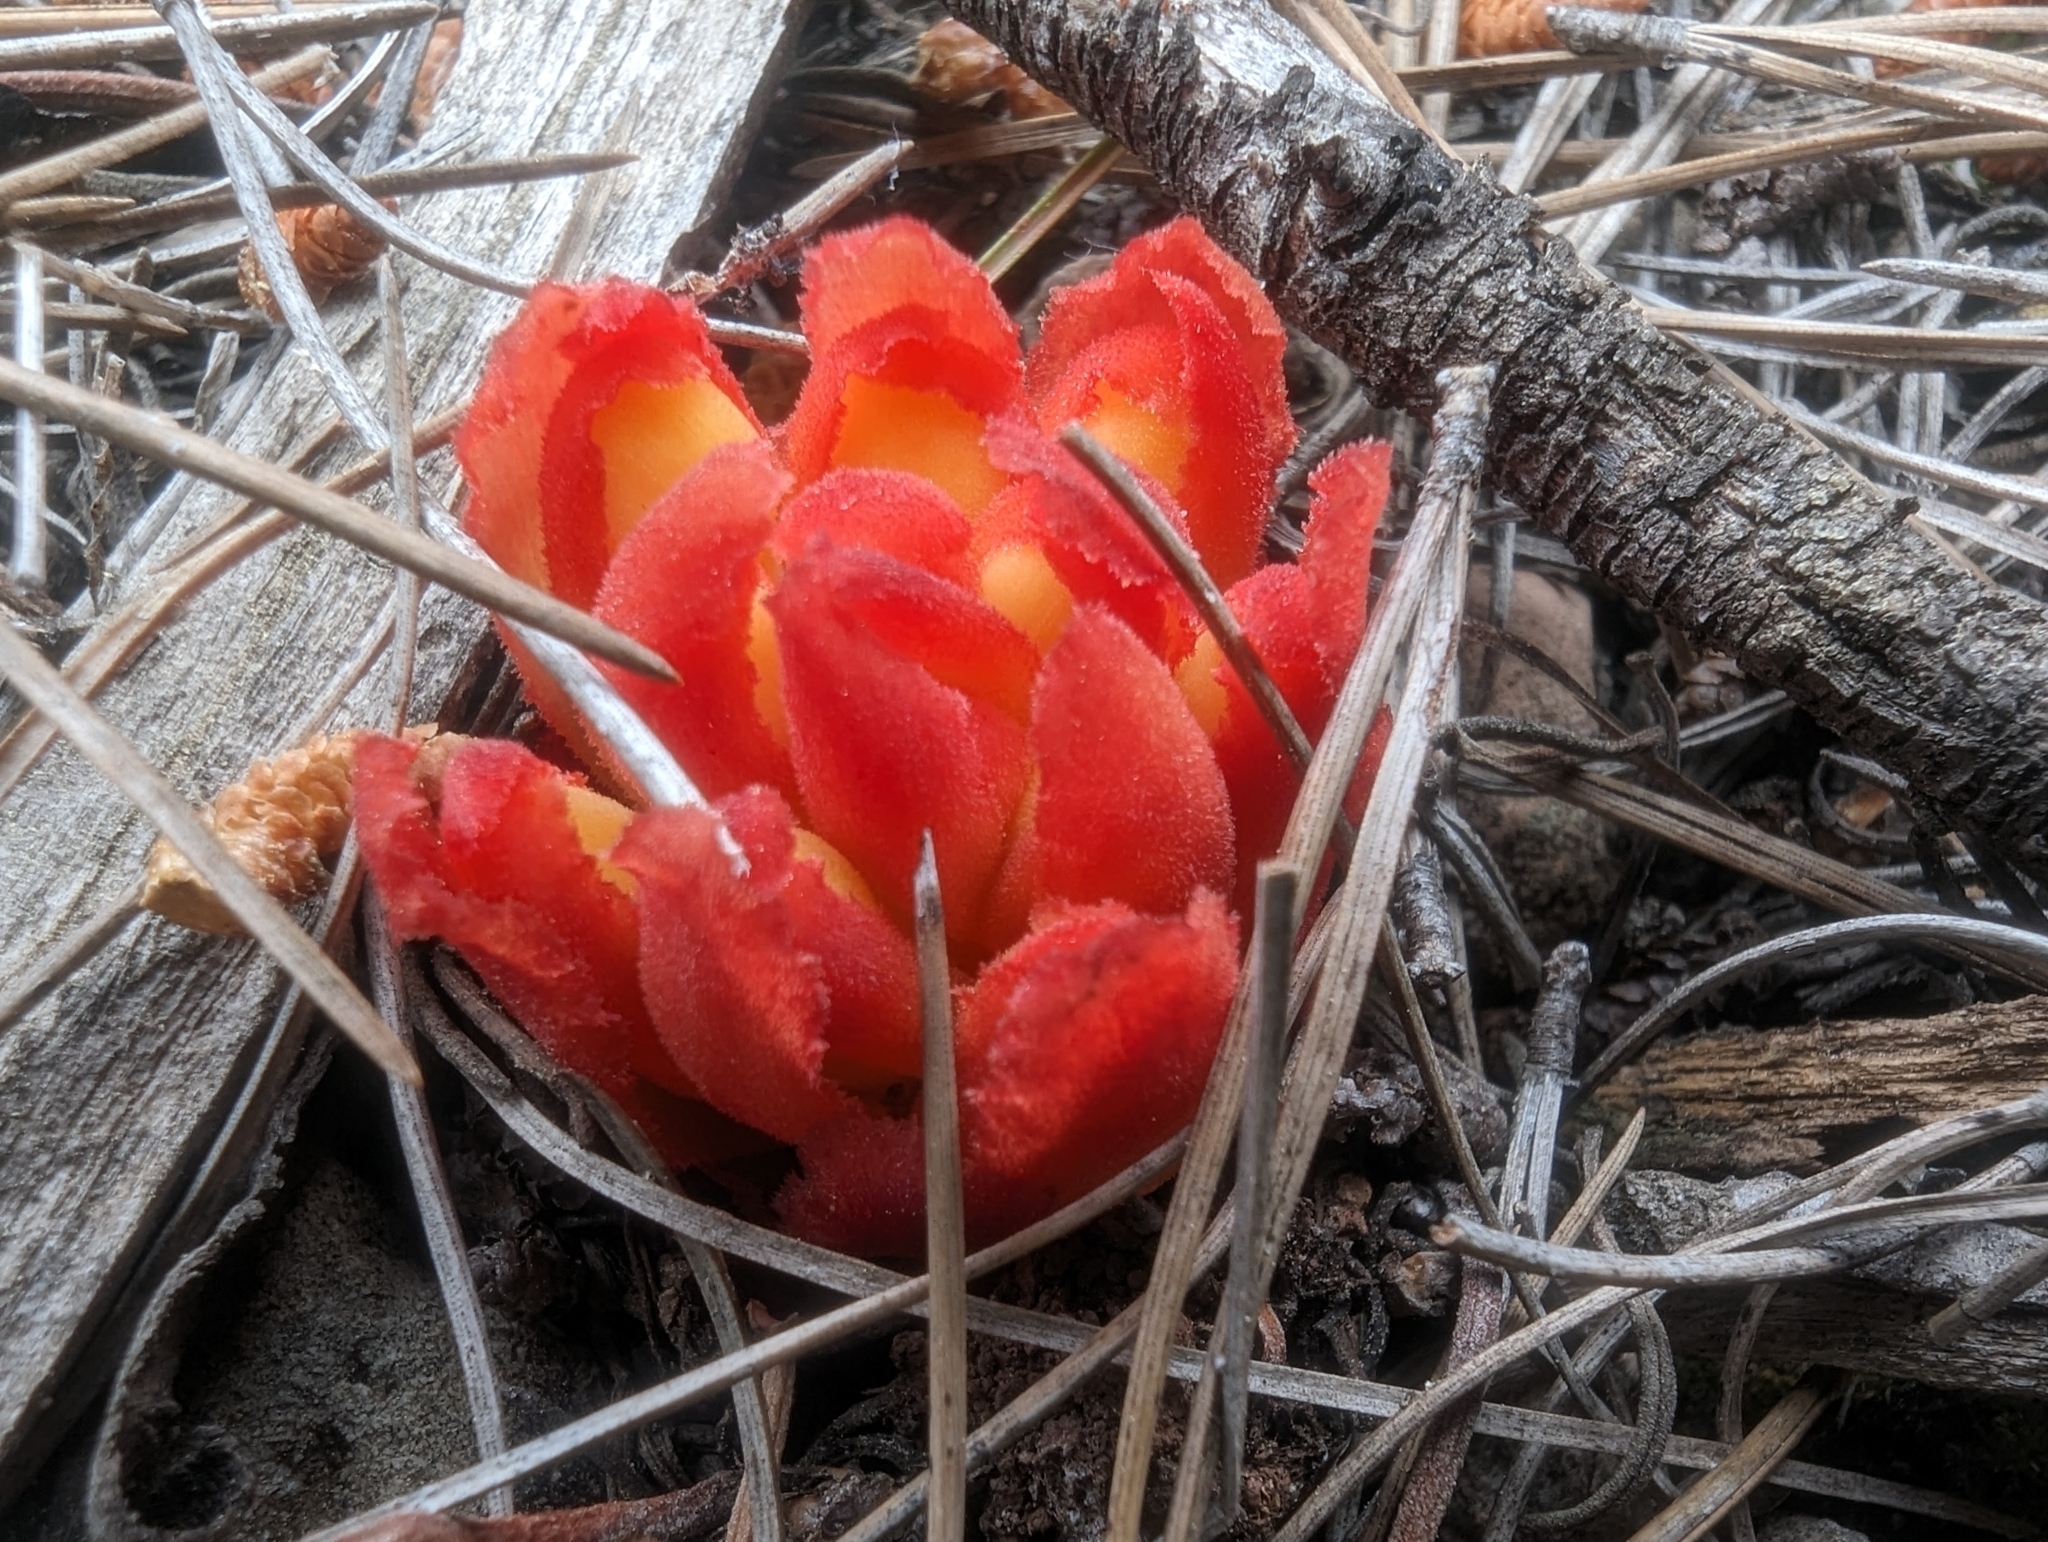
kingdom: Plantae
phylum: Tracheophyta
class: Magnoliopsida
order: Malvales
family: Cytinaceae
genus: Cytinus
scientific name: Cytinus hypocistis
